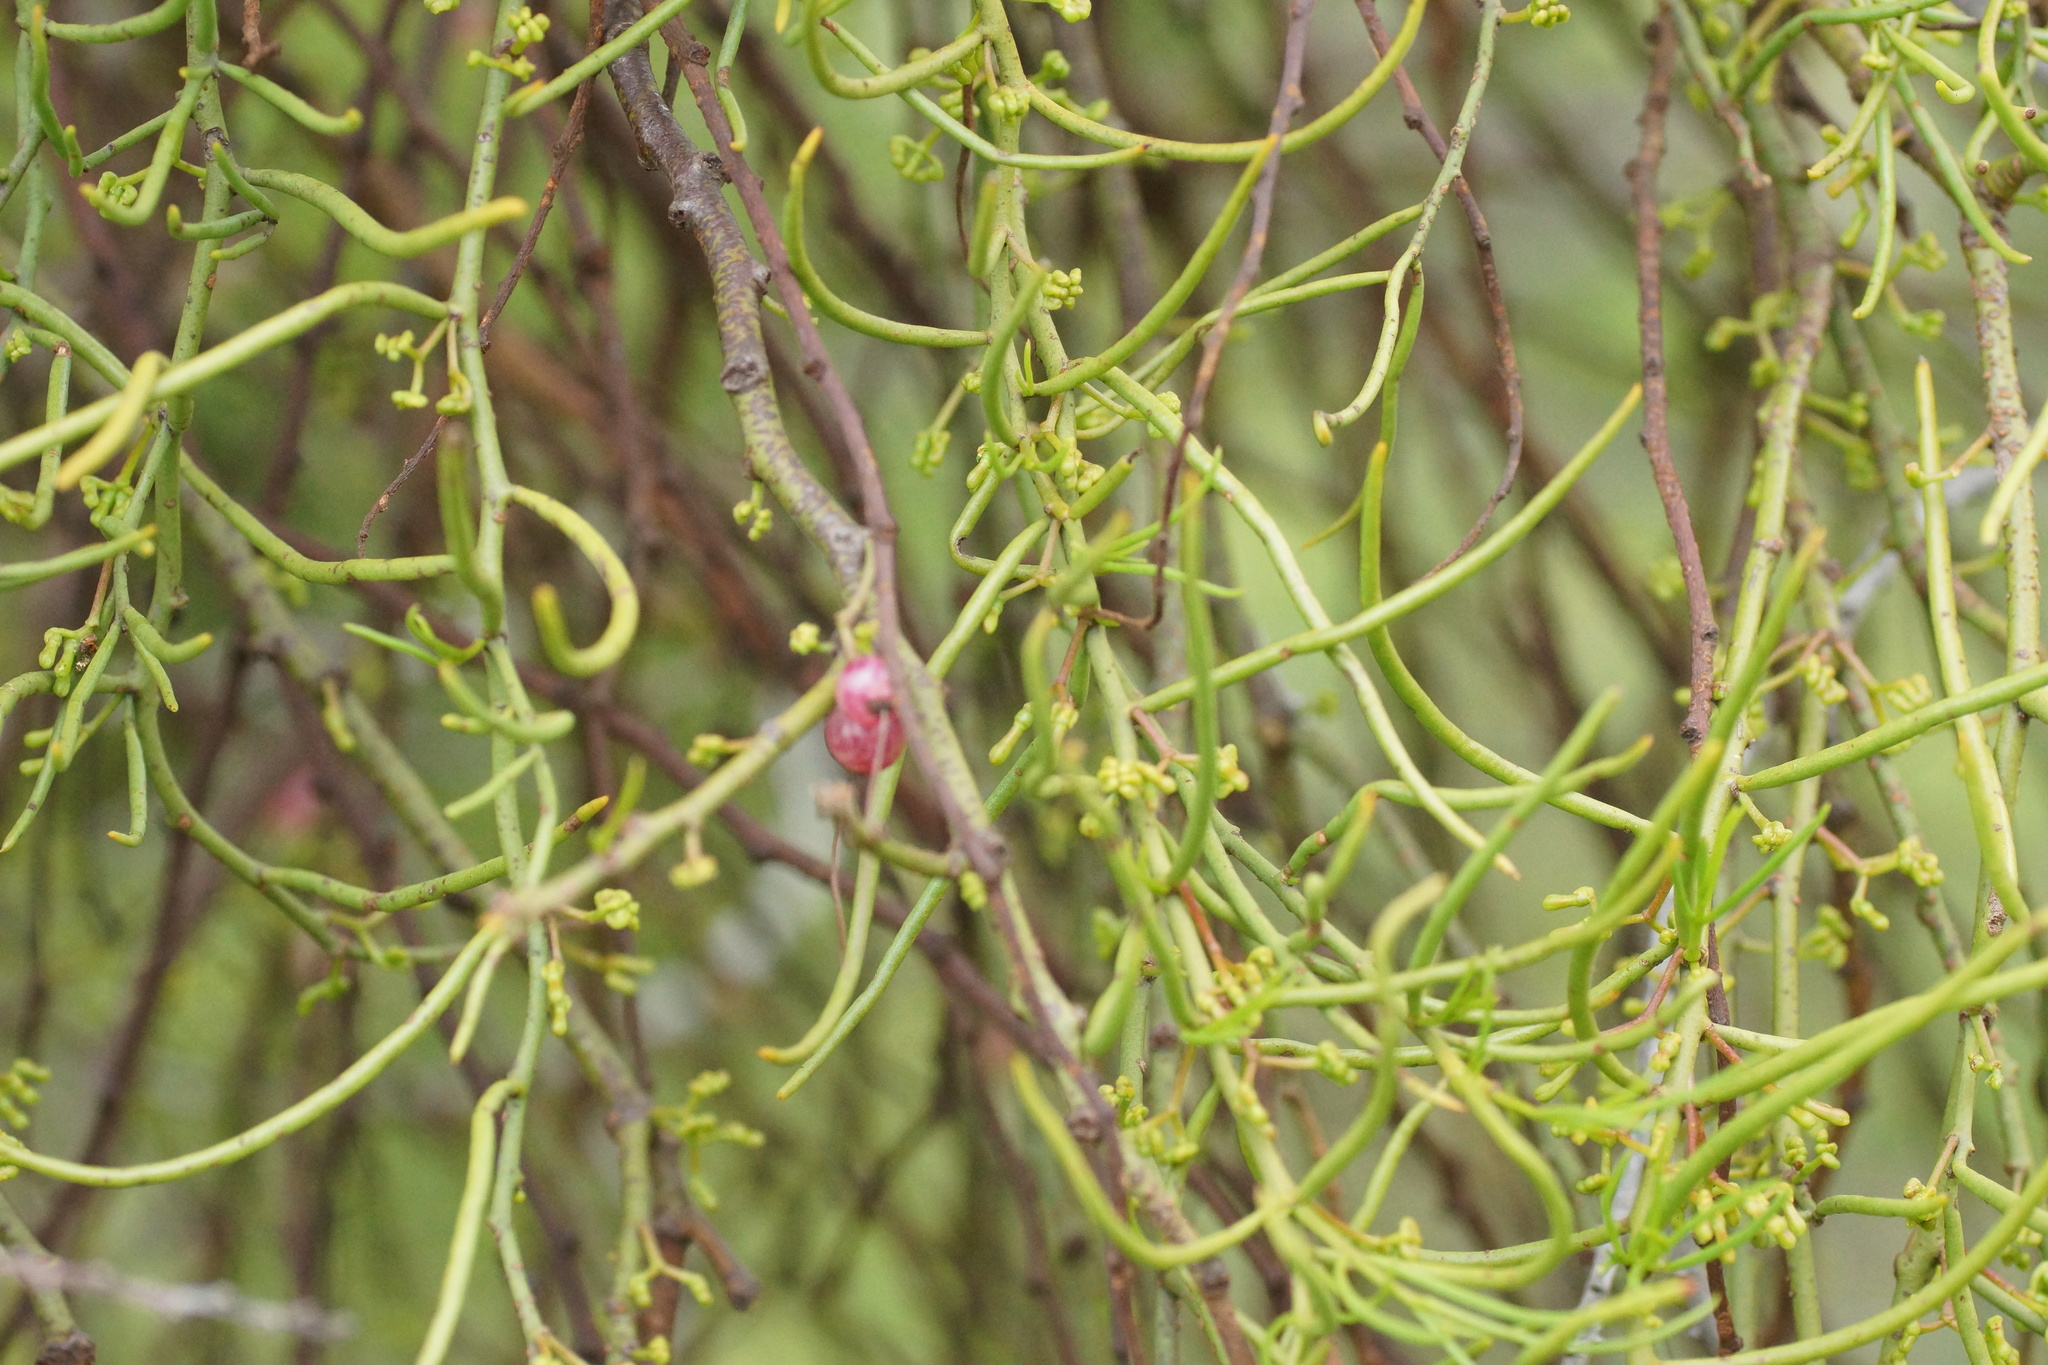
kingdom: Plantae
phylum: Tracheophyta
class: Magnoliopsida
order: Santalales
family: Loranthaceae
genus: Amyema
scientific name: Amyema preissii
